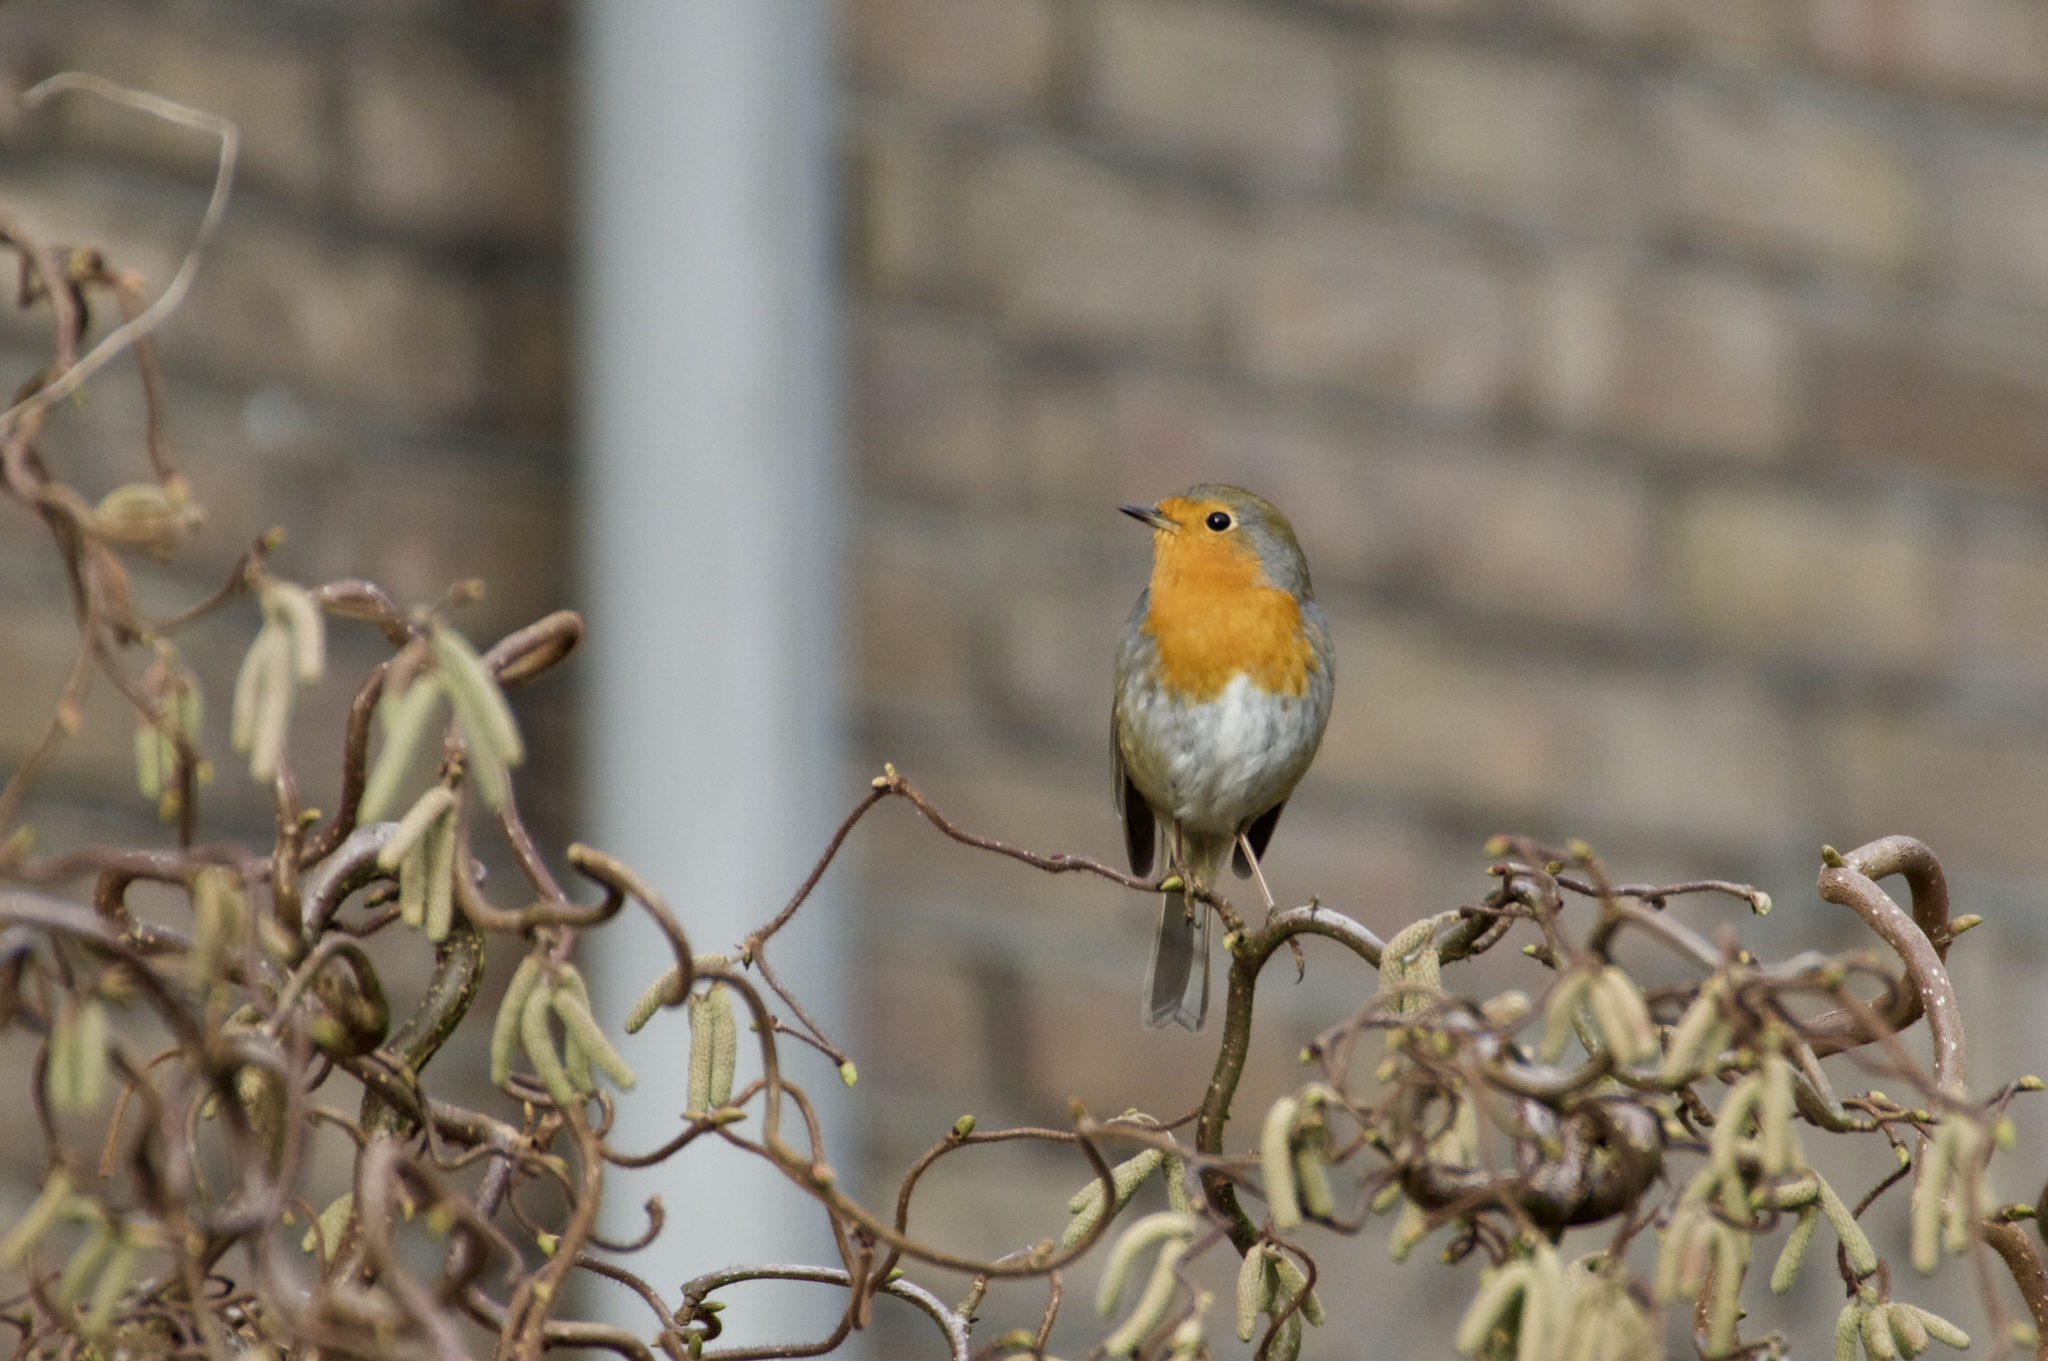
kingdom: Animalia
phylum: Chordata
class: Aves
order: Passeriformes
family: Muscicapidae
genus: Erithacus
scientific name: Erithacus rubecula
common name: European robin
